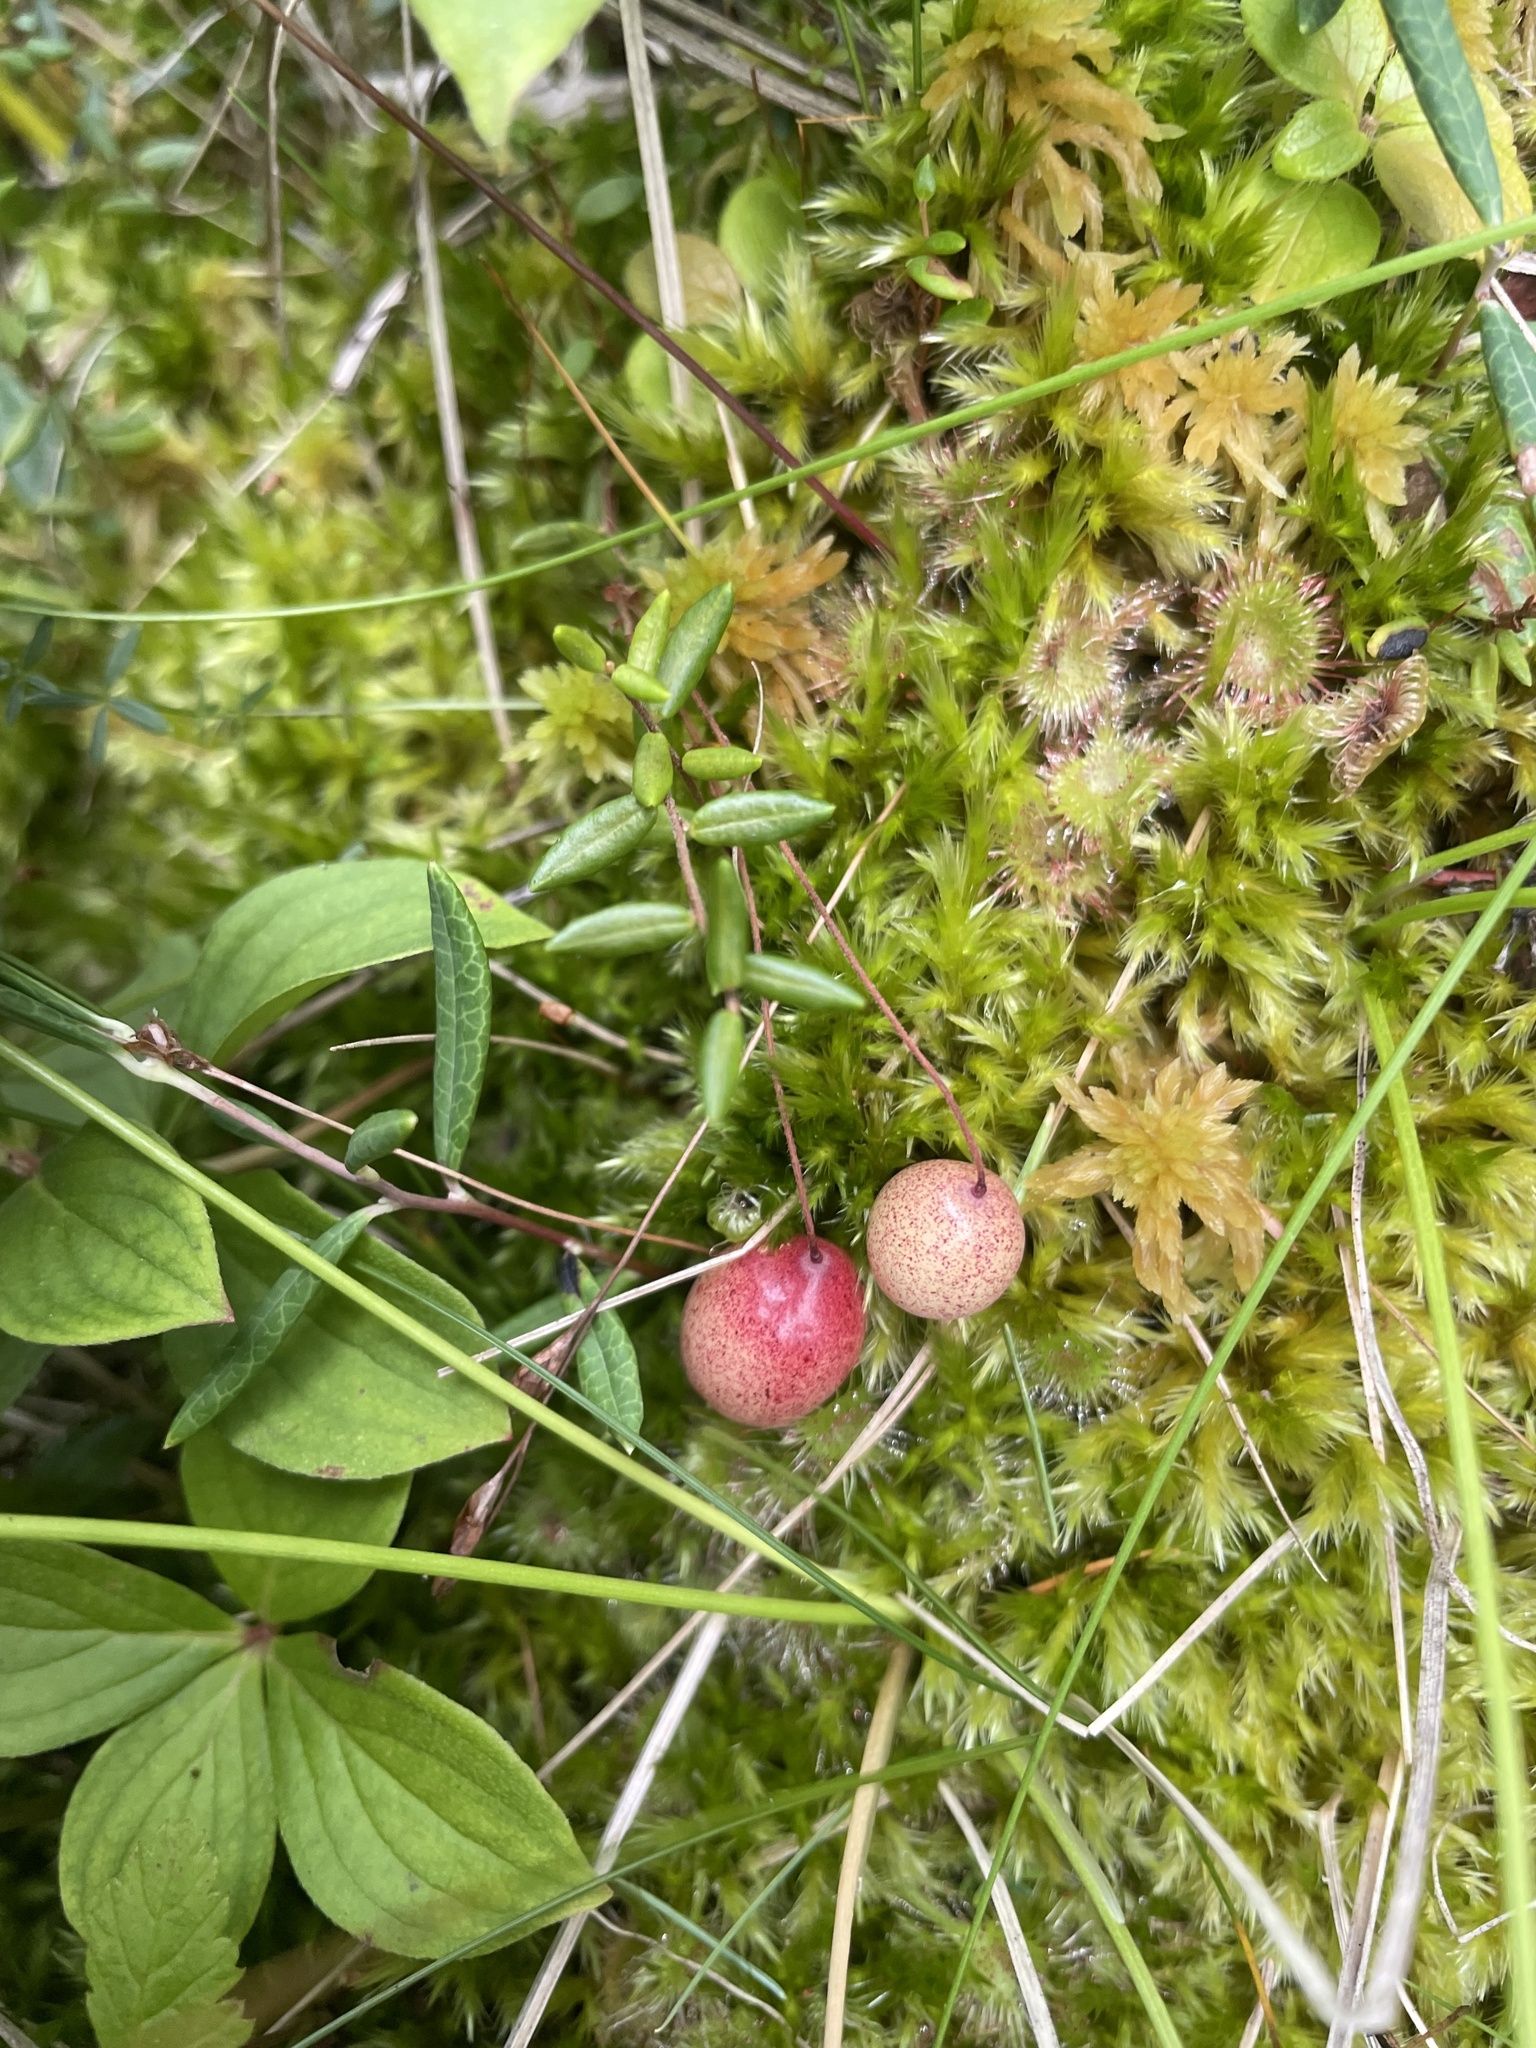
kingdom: Plantae
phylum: Tracheophyta
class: Magnoliopsida
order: Ericales
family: Ericaceae
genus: Vaccinium
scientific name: Vaccinium oxycoccos
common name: Cranberry
